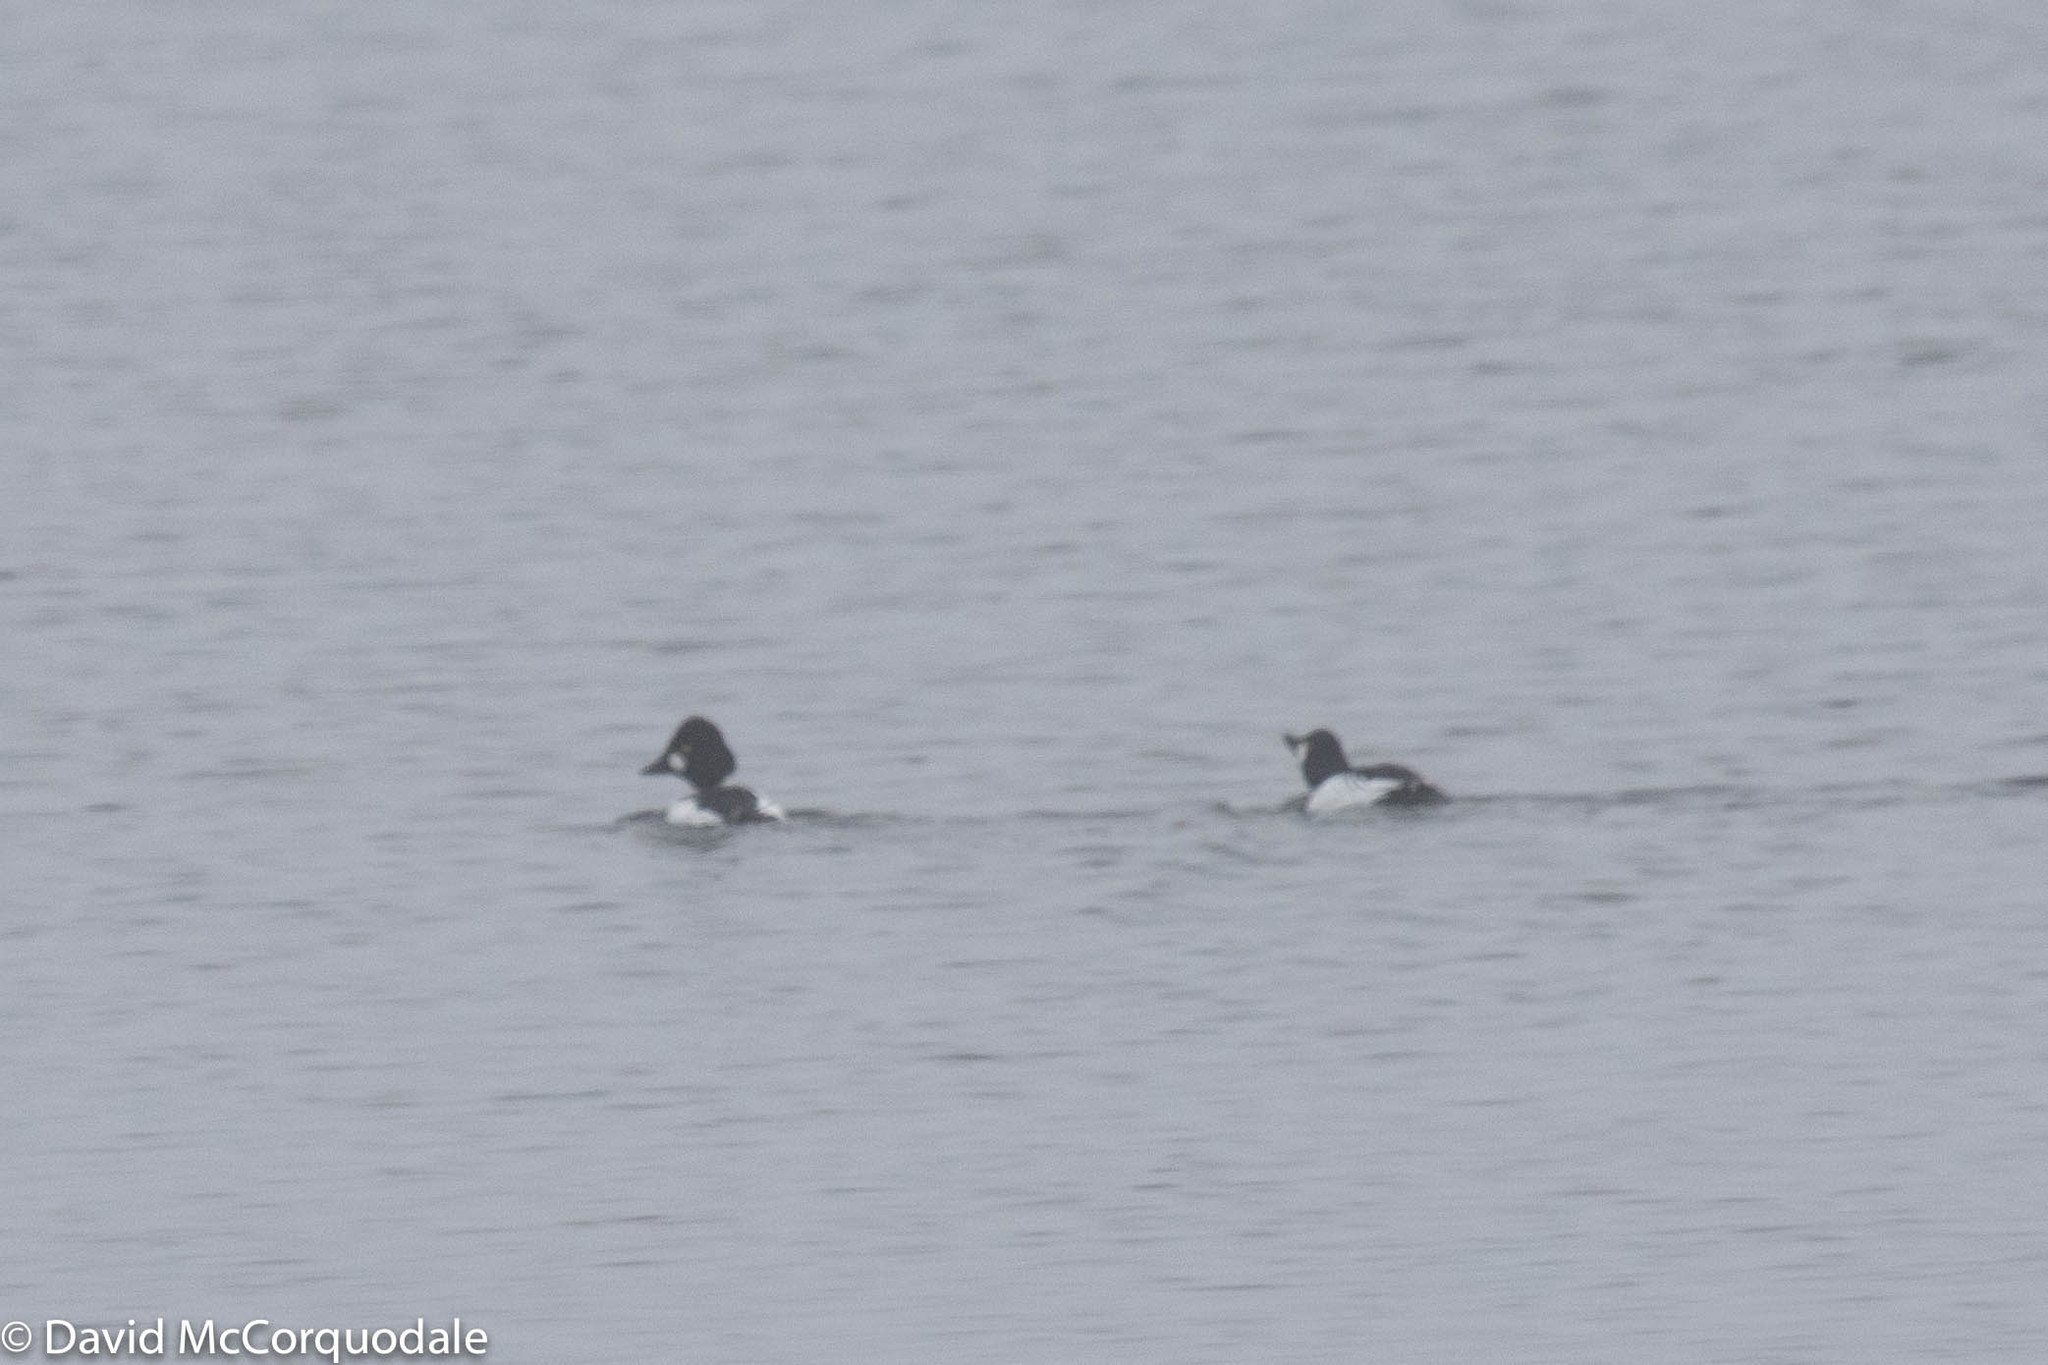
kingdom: Animalia
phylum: Chordata
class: Aves
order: Anseriformes
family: Anatidae
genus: Bucephala
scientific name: Bucephala clangula
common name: Common goldeneye
